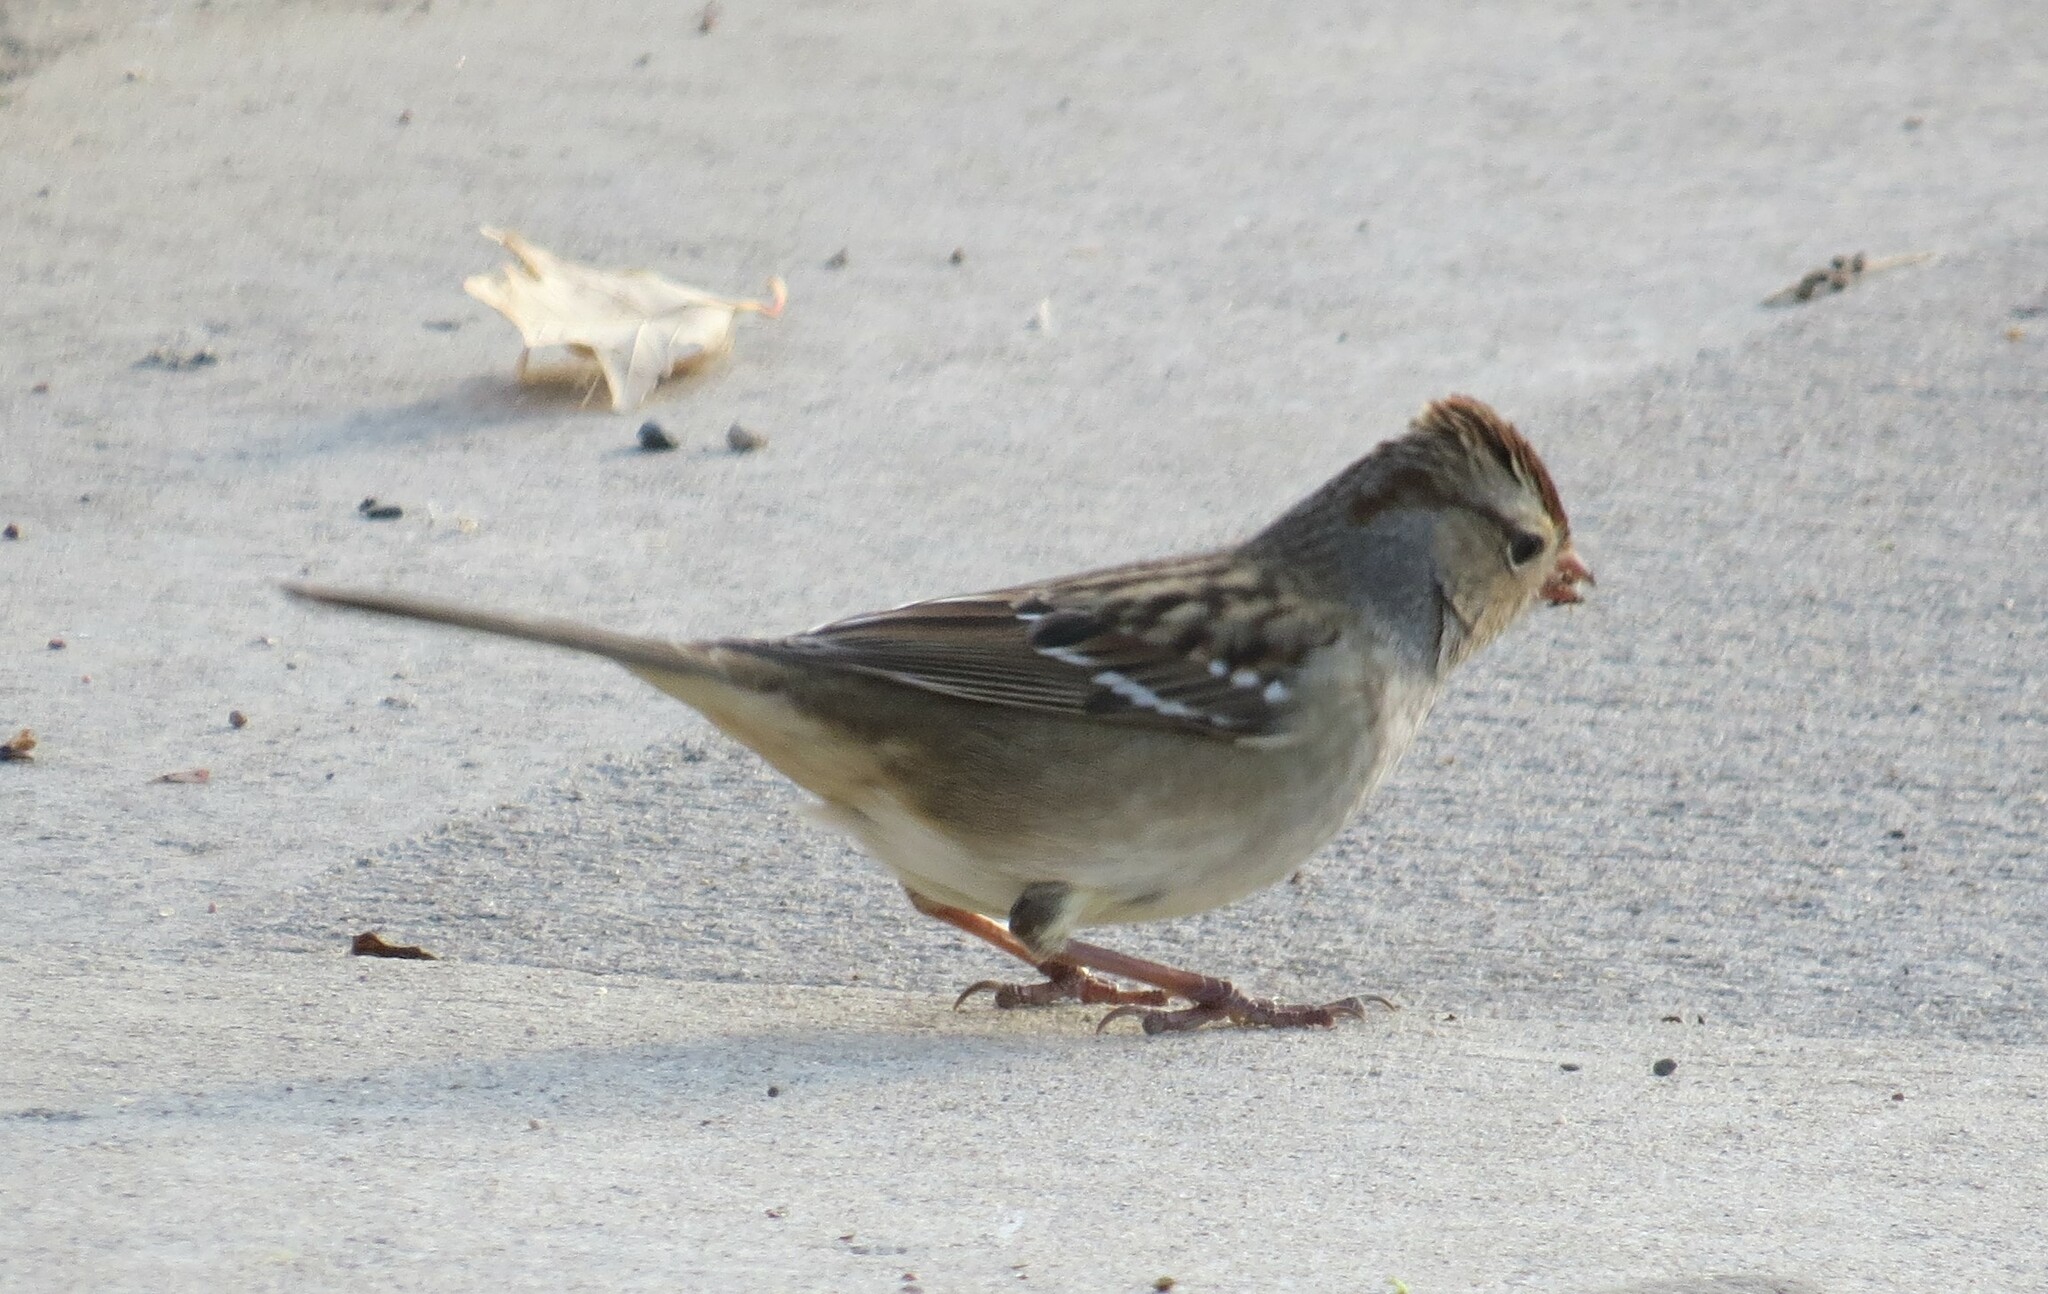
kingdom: Animalia
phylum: Chordata
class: Aves
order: Passeriformes
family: Passerellidae
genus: Zonotrichia
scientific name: Zonotrichia leucophrys
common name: White-crowned sparrow
